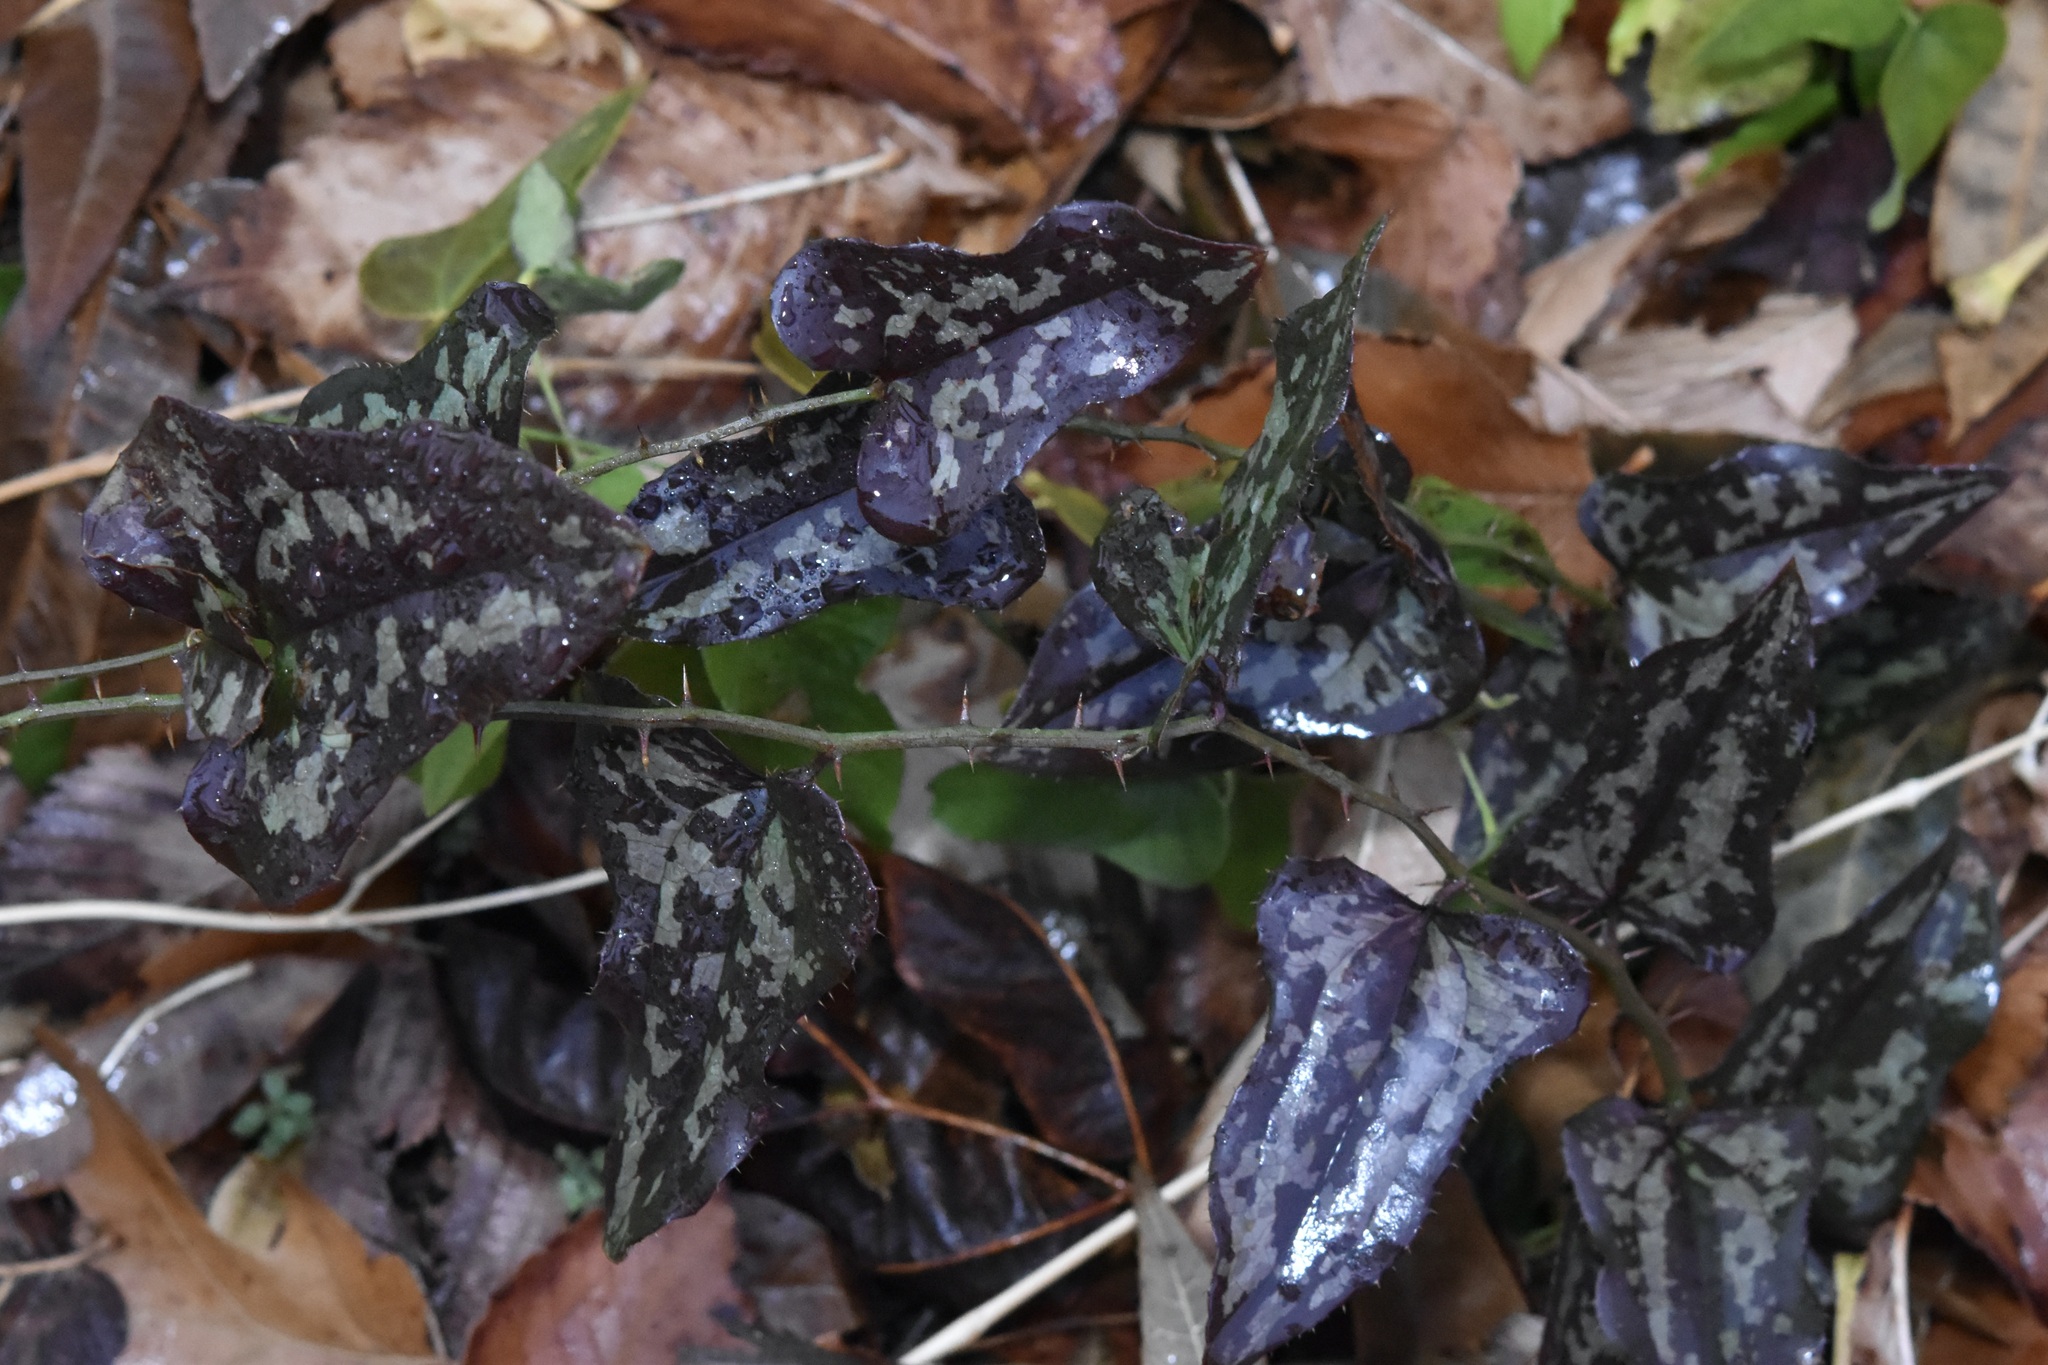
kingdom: Plantae
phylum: Tracheophyta
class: Liliopsida
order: Liliales
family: Smilacaceae
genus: Smilax
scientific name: Smilax bona-nox
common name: Catbrier
